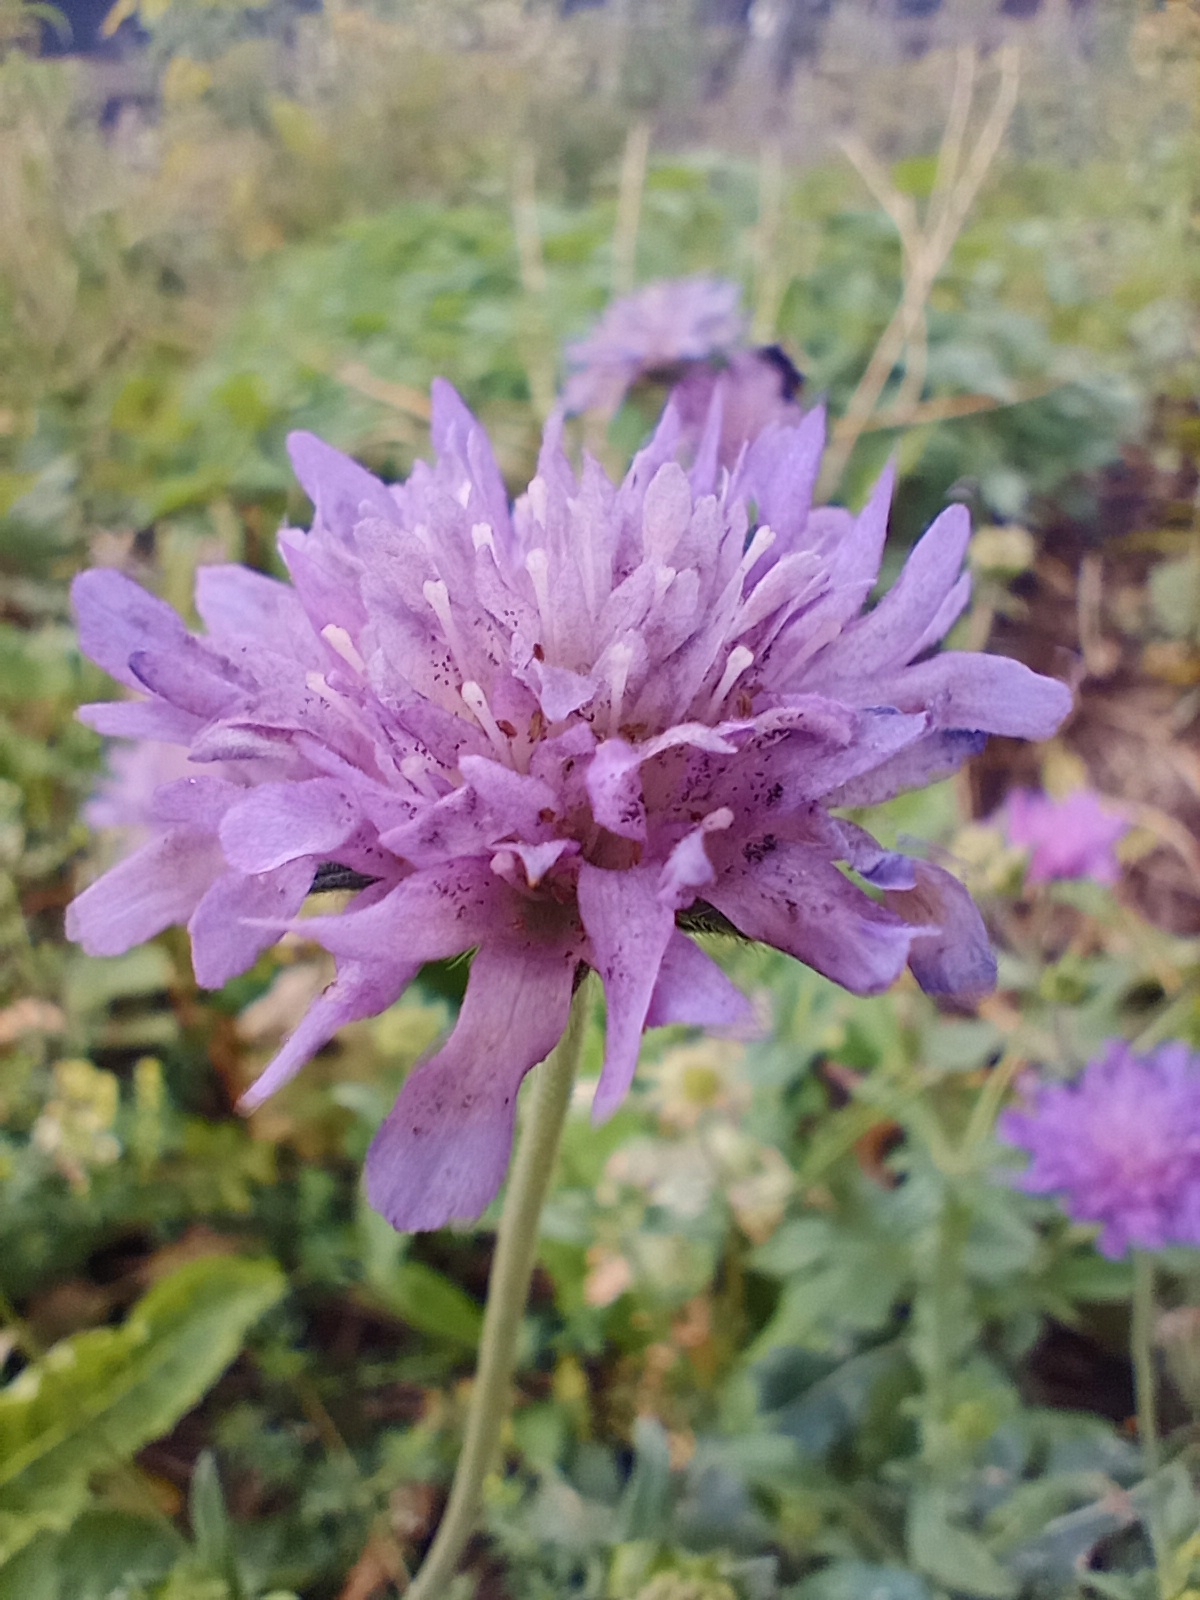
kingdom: Plantae
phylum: Tracheophyta
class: Magnoliopsida
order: Dipsacales
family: Caprifoliaceae
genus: Knautia
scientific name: Knautia arvensis
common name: Field scabiosa
